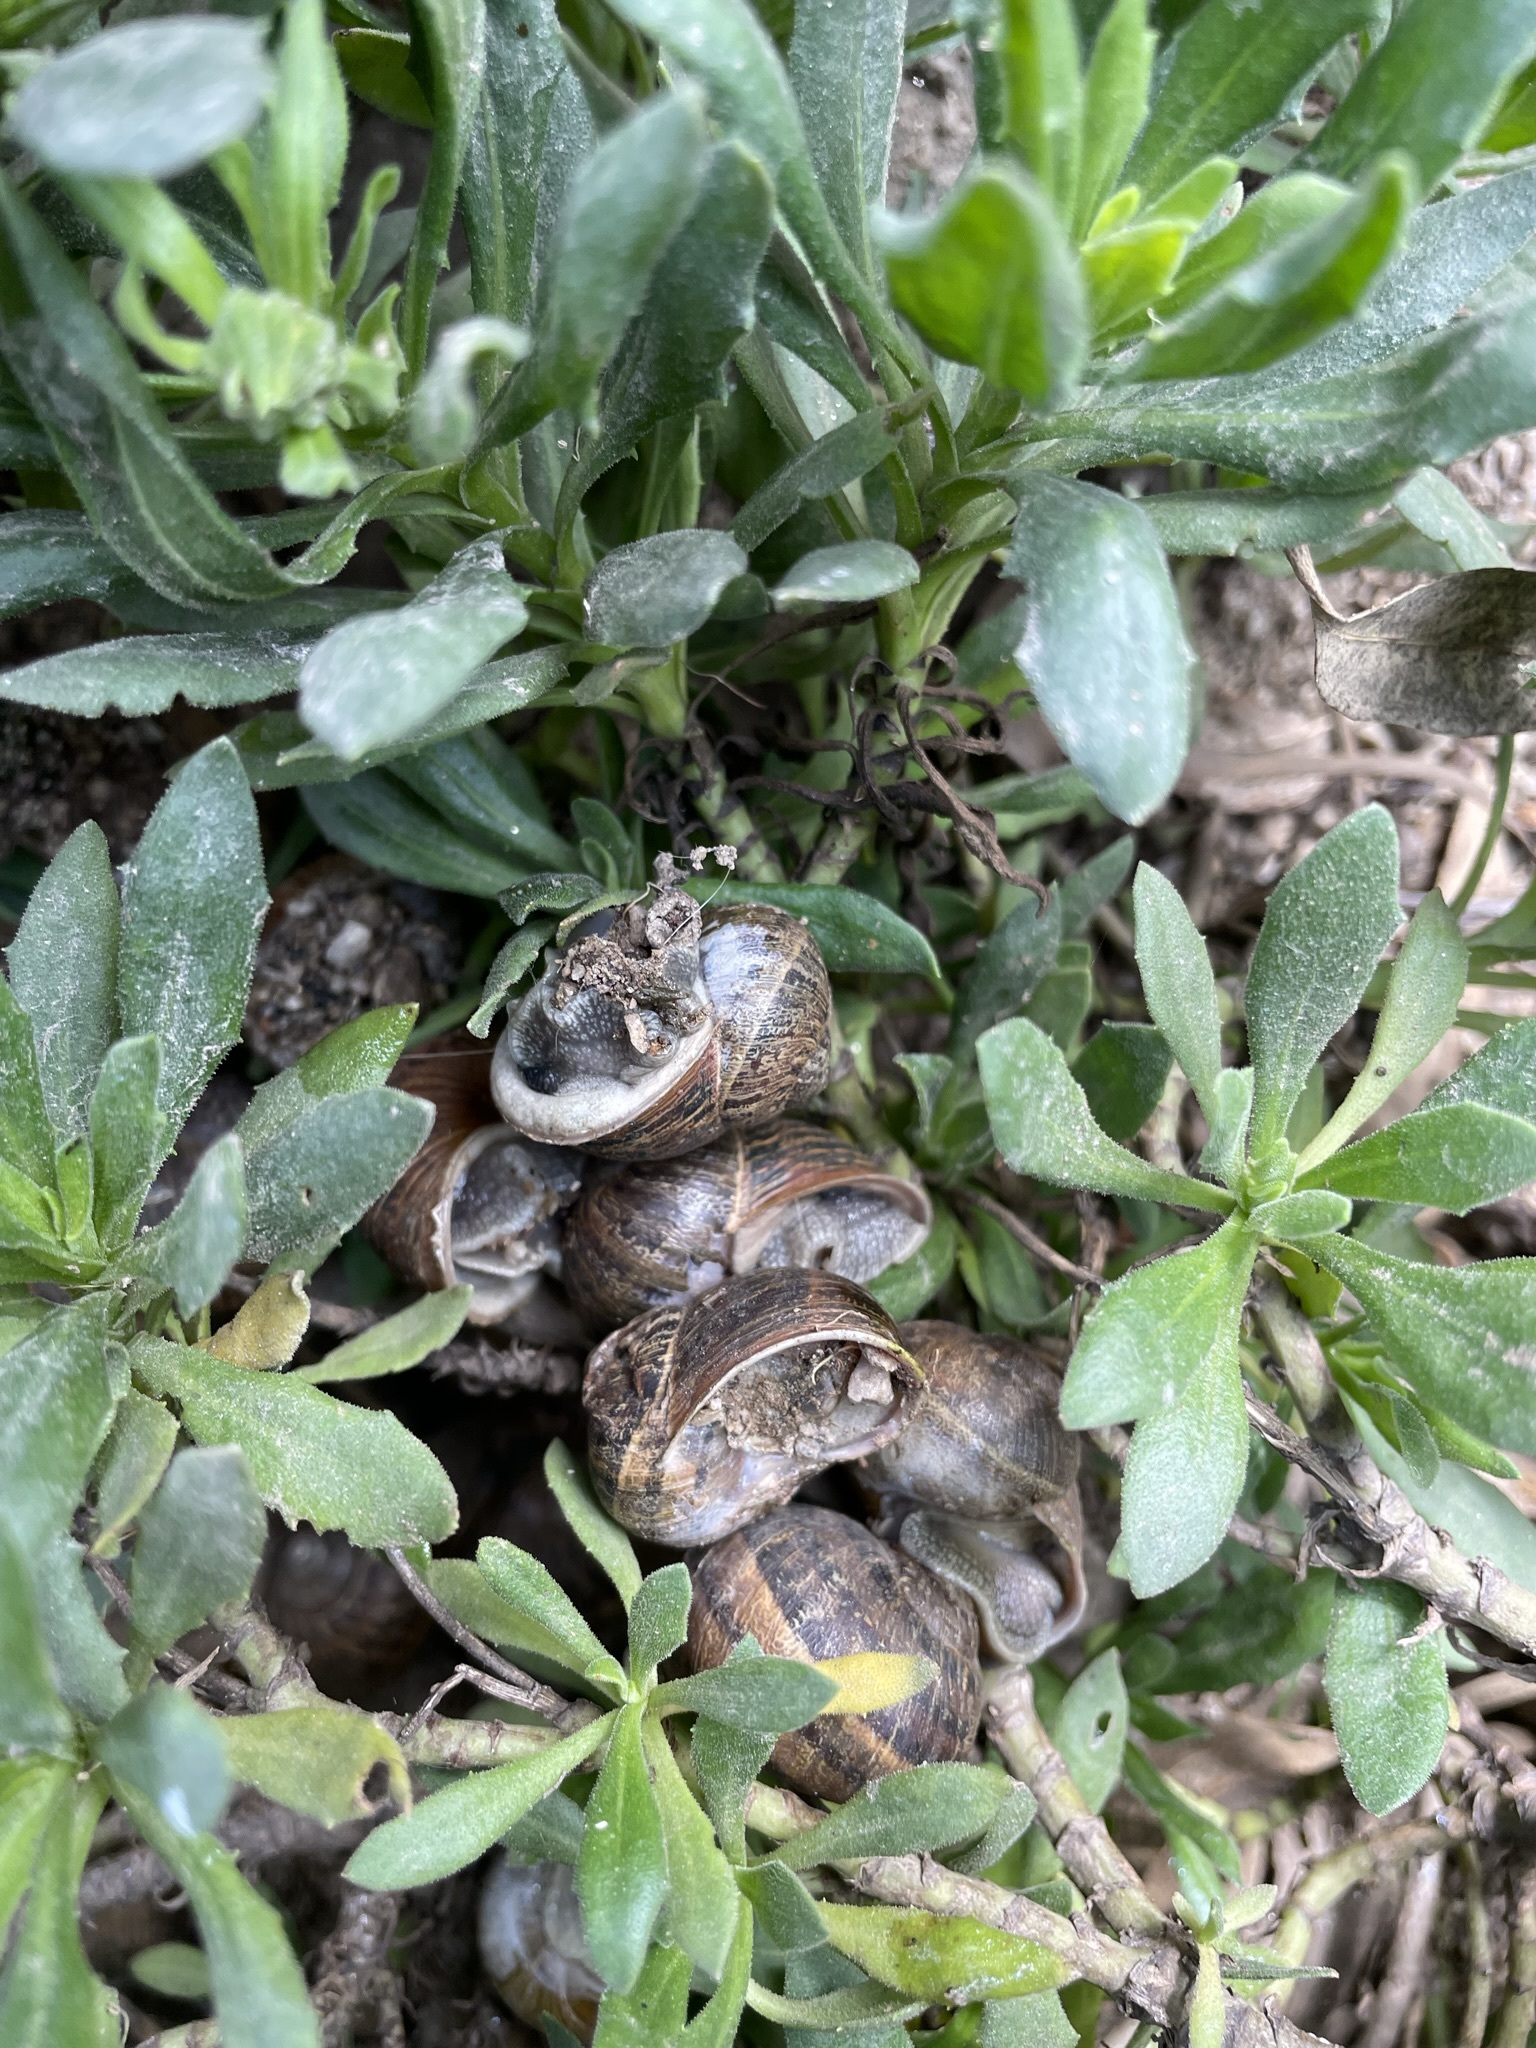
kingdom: Animalia
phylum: Mollusca
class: Gastropoda
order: Stylommatophora
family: Helicidae
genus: Cornu
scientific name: Cornu aspersum
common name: Brown garden snail
